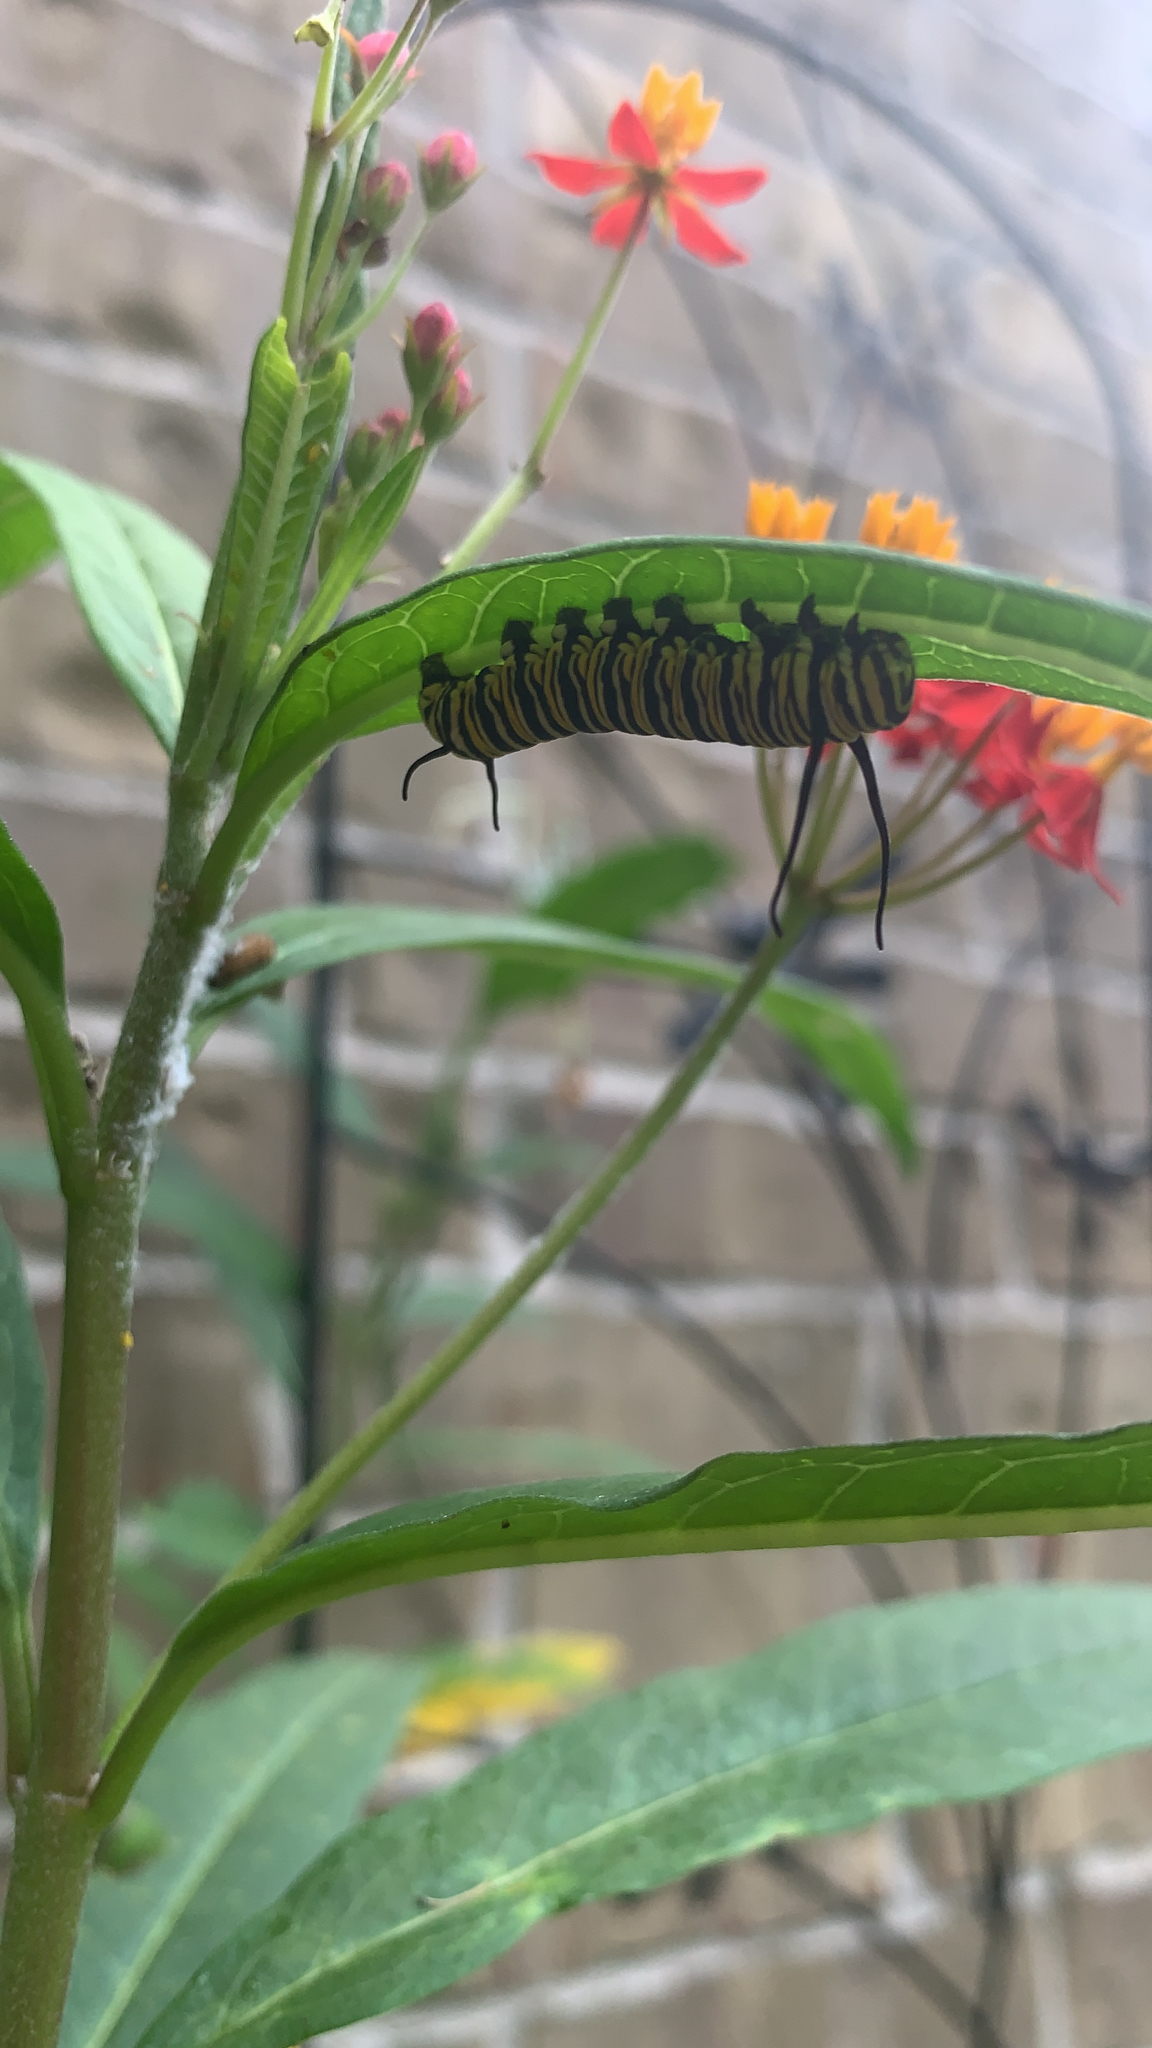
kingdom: Animalia
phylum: Arthropoda
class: Insecta
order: Lepidoptera
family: Nymphalidae
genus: Danaus
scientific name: Danaus plexippus
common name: Monarch
